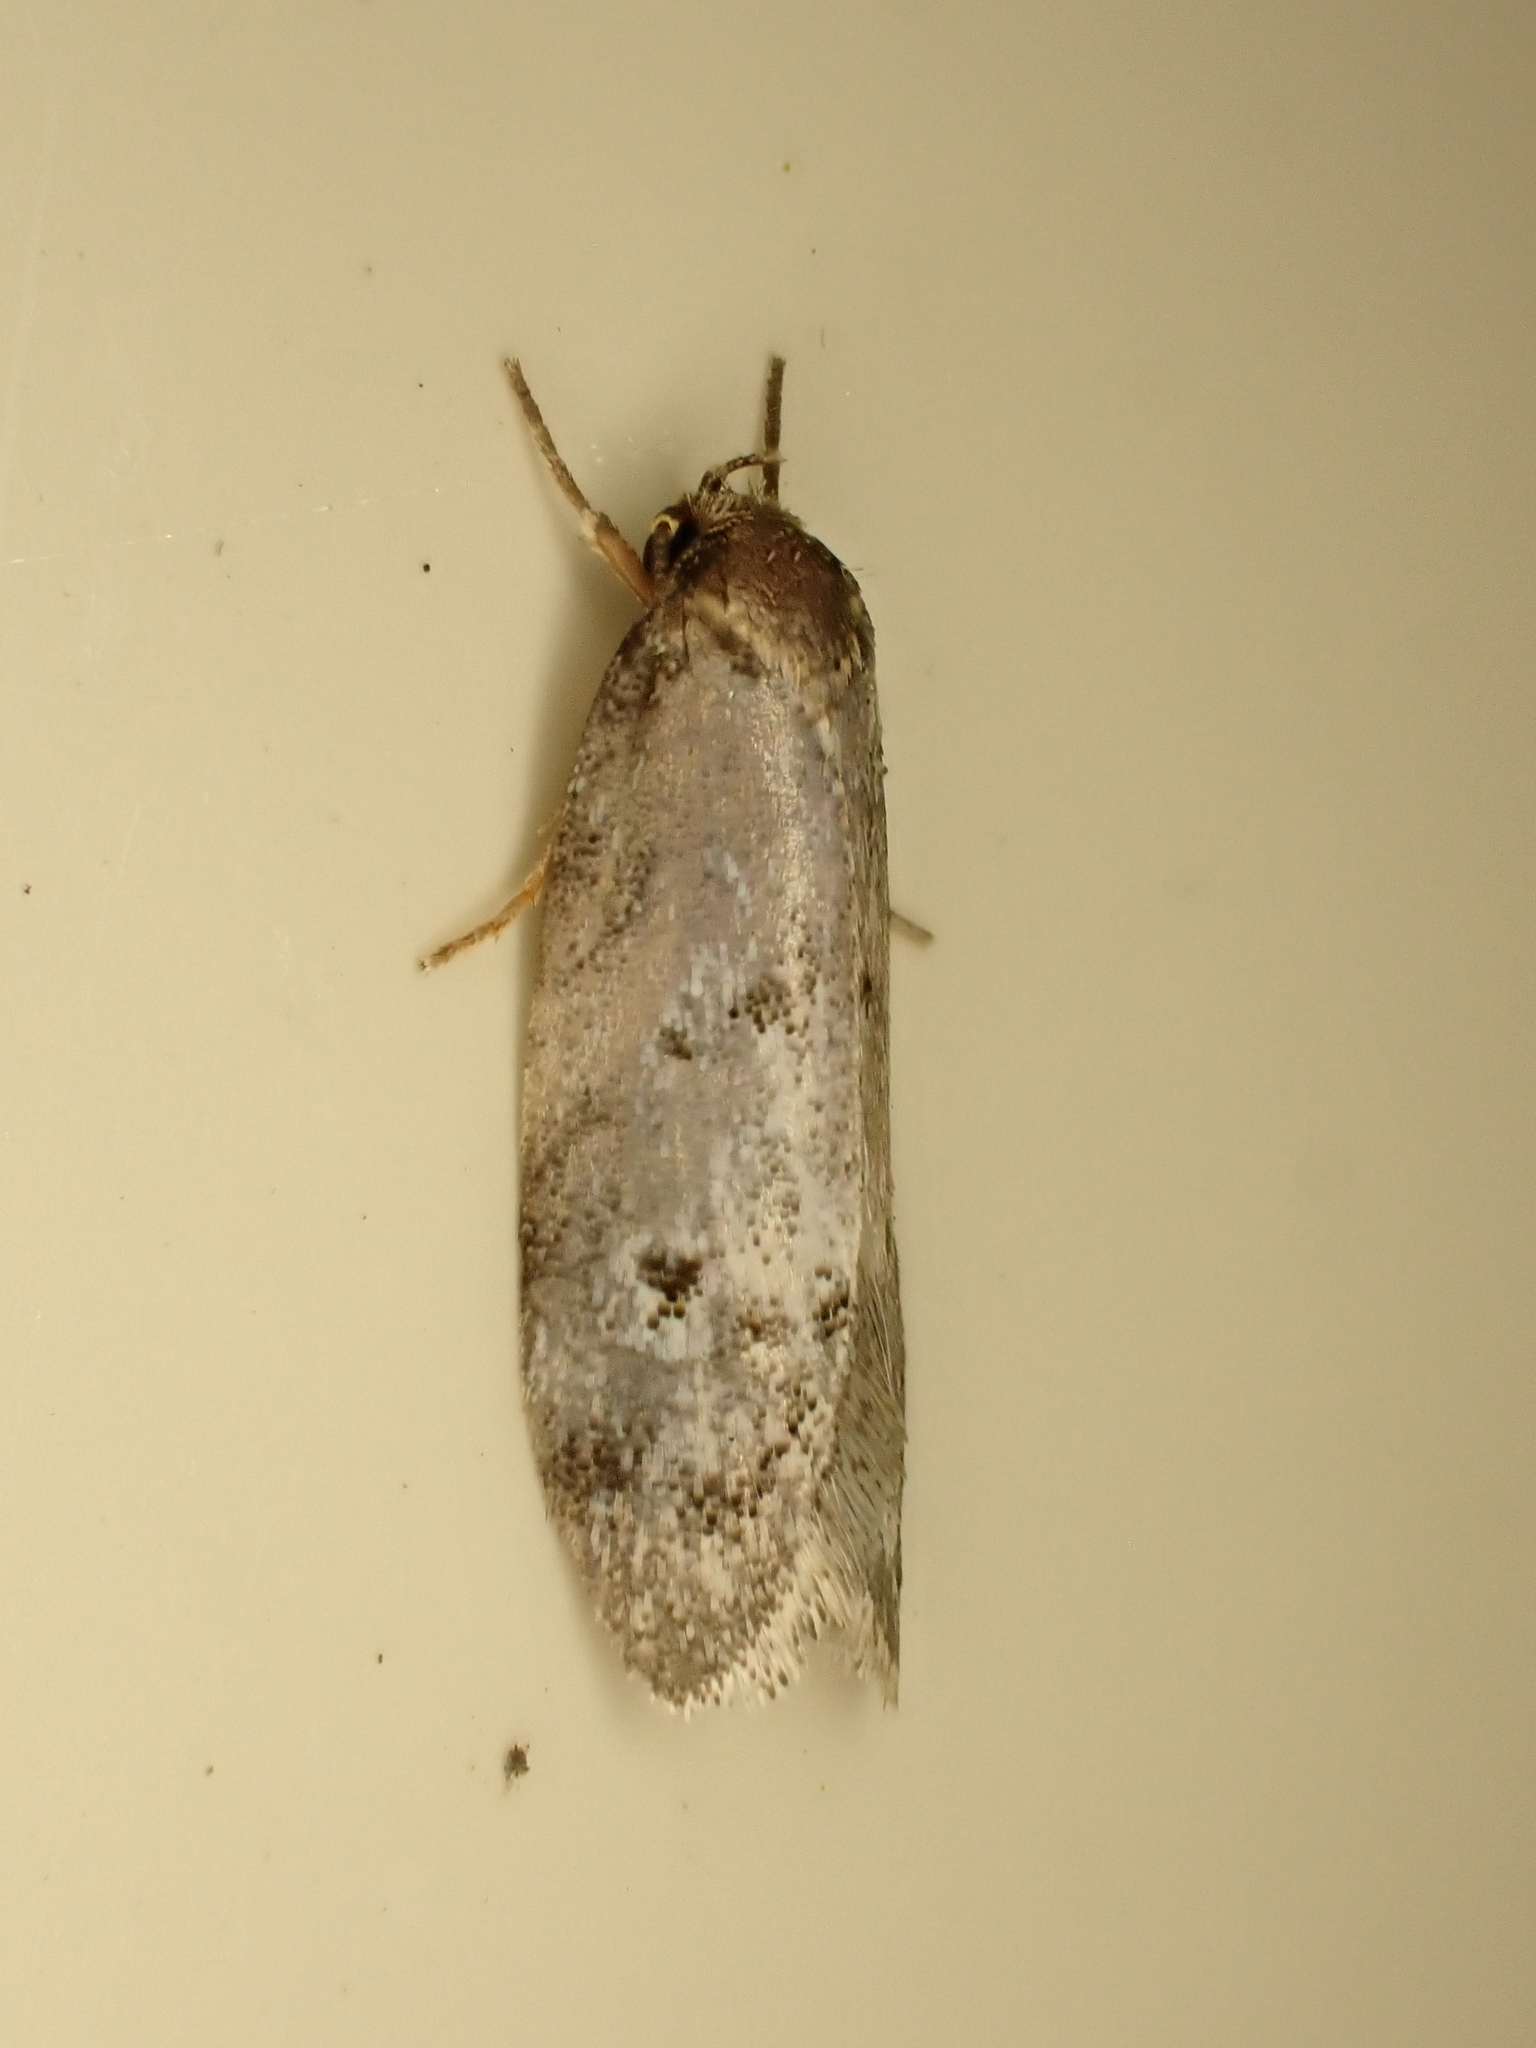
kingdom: Animalia
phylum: Arthropoda
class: Insecta
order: Lepidoptera
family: Oecophoridae
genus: Tingena
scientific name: Tingena clarkei
